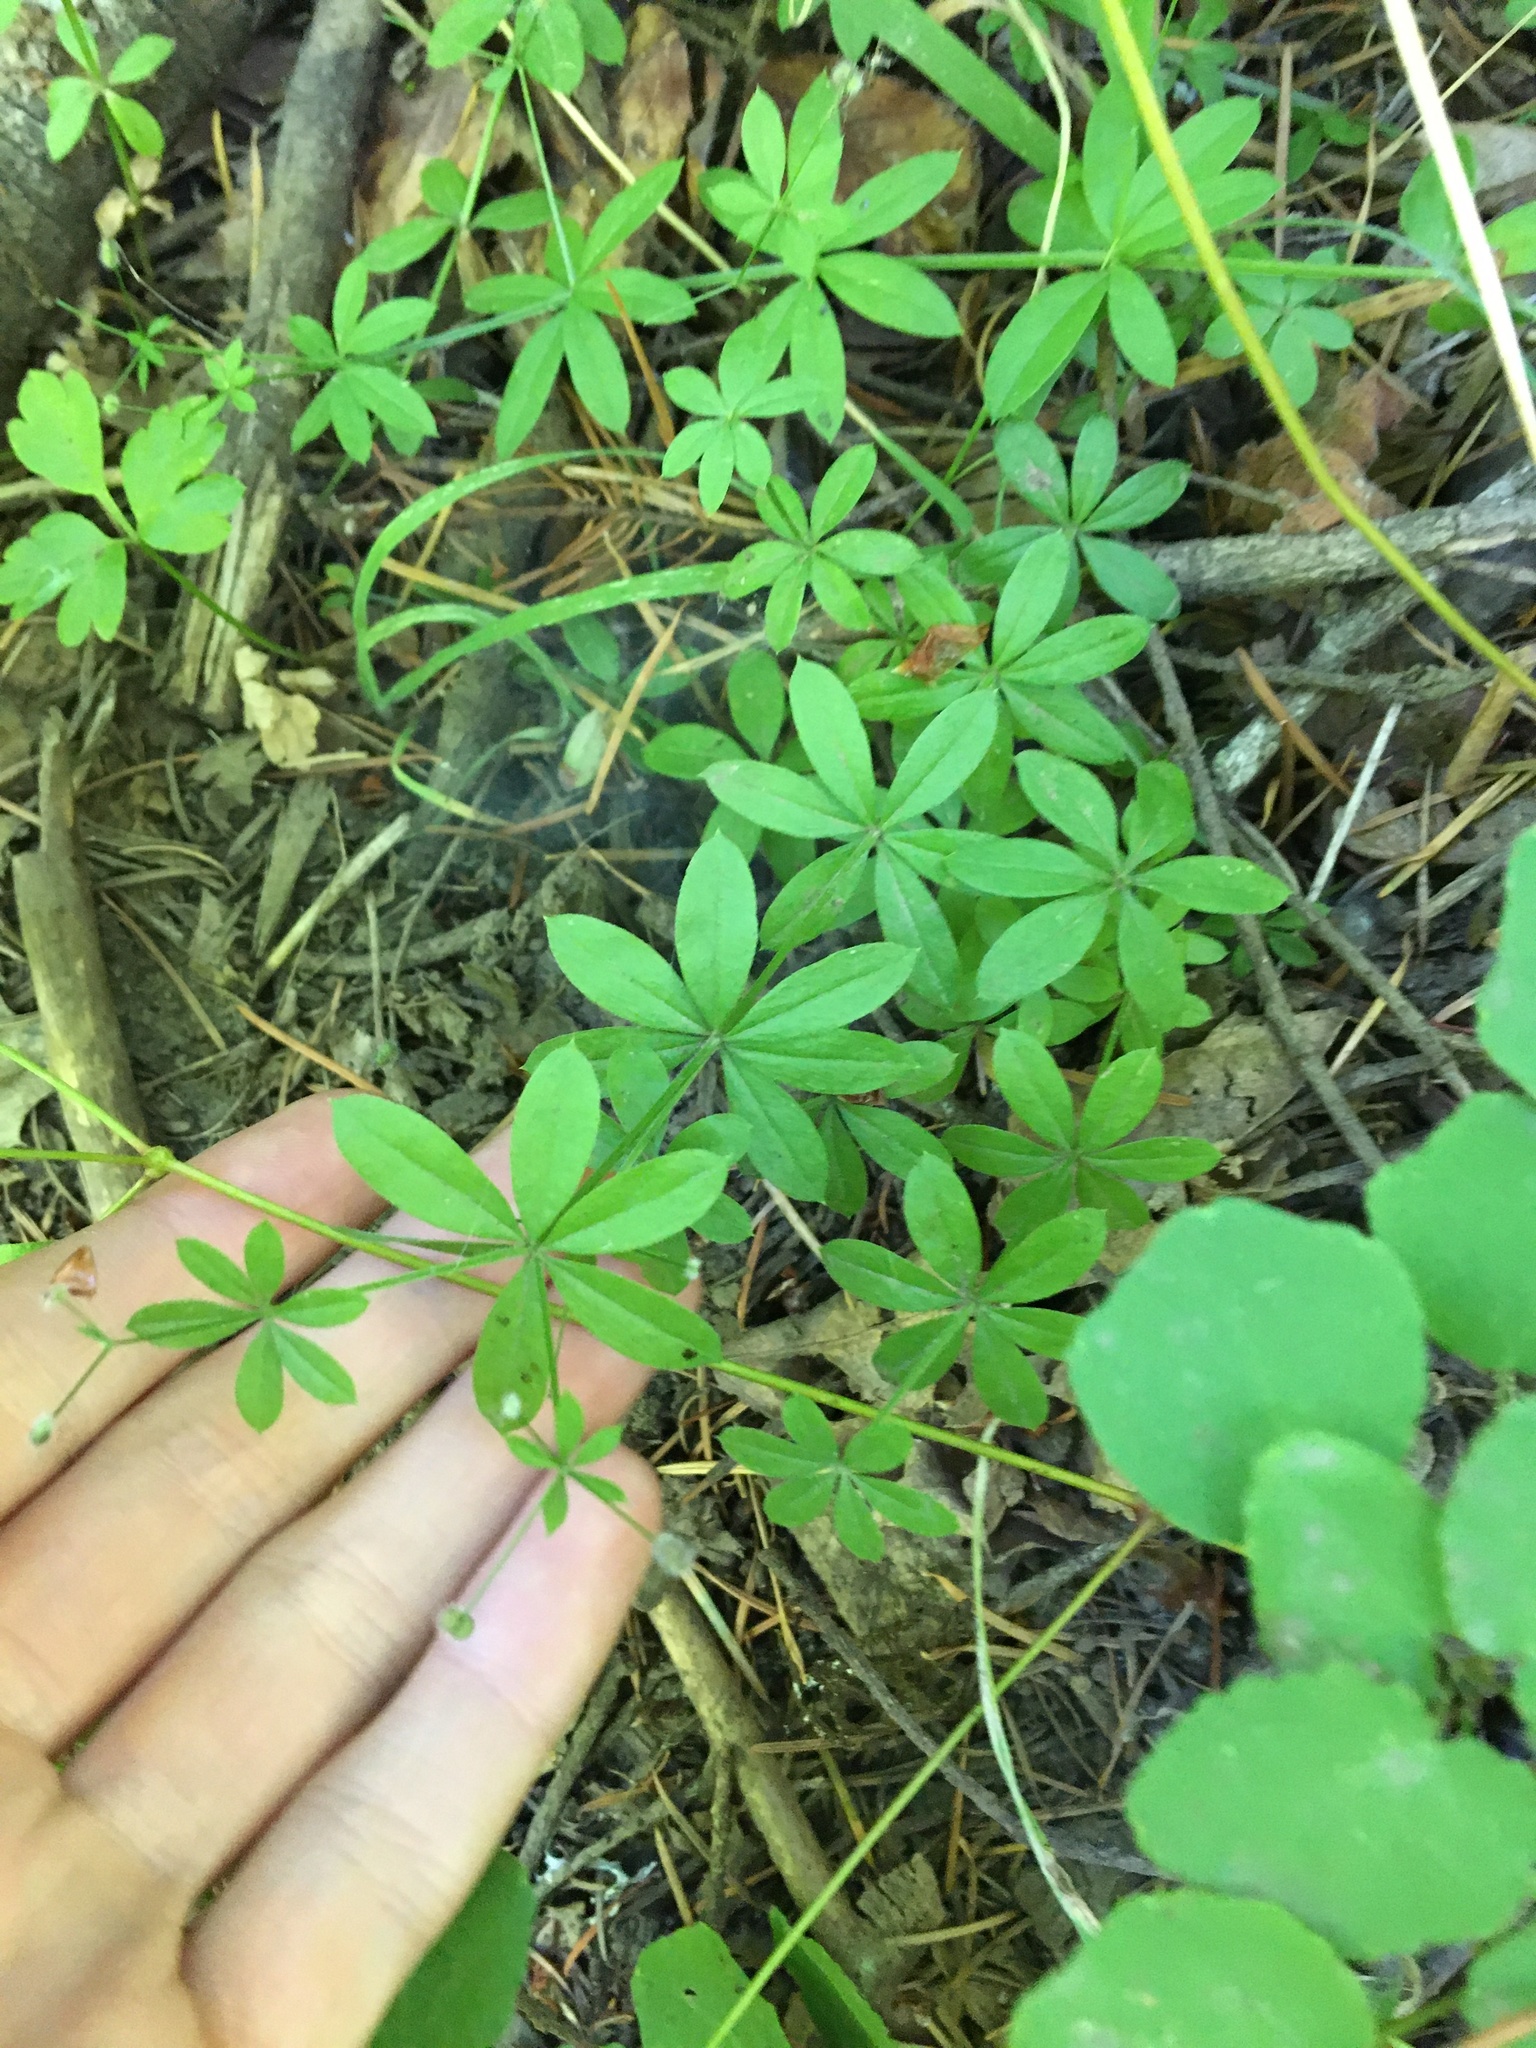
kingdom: Plantae
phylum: Tracheophyta
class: Magnoliopsida
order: Gentianales
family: Rubiaceae
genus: Galium
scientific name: Galium triflorum
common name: Fragrant bedstraw
